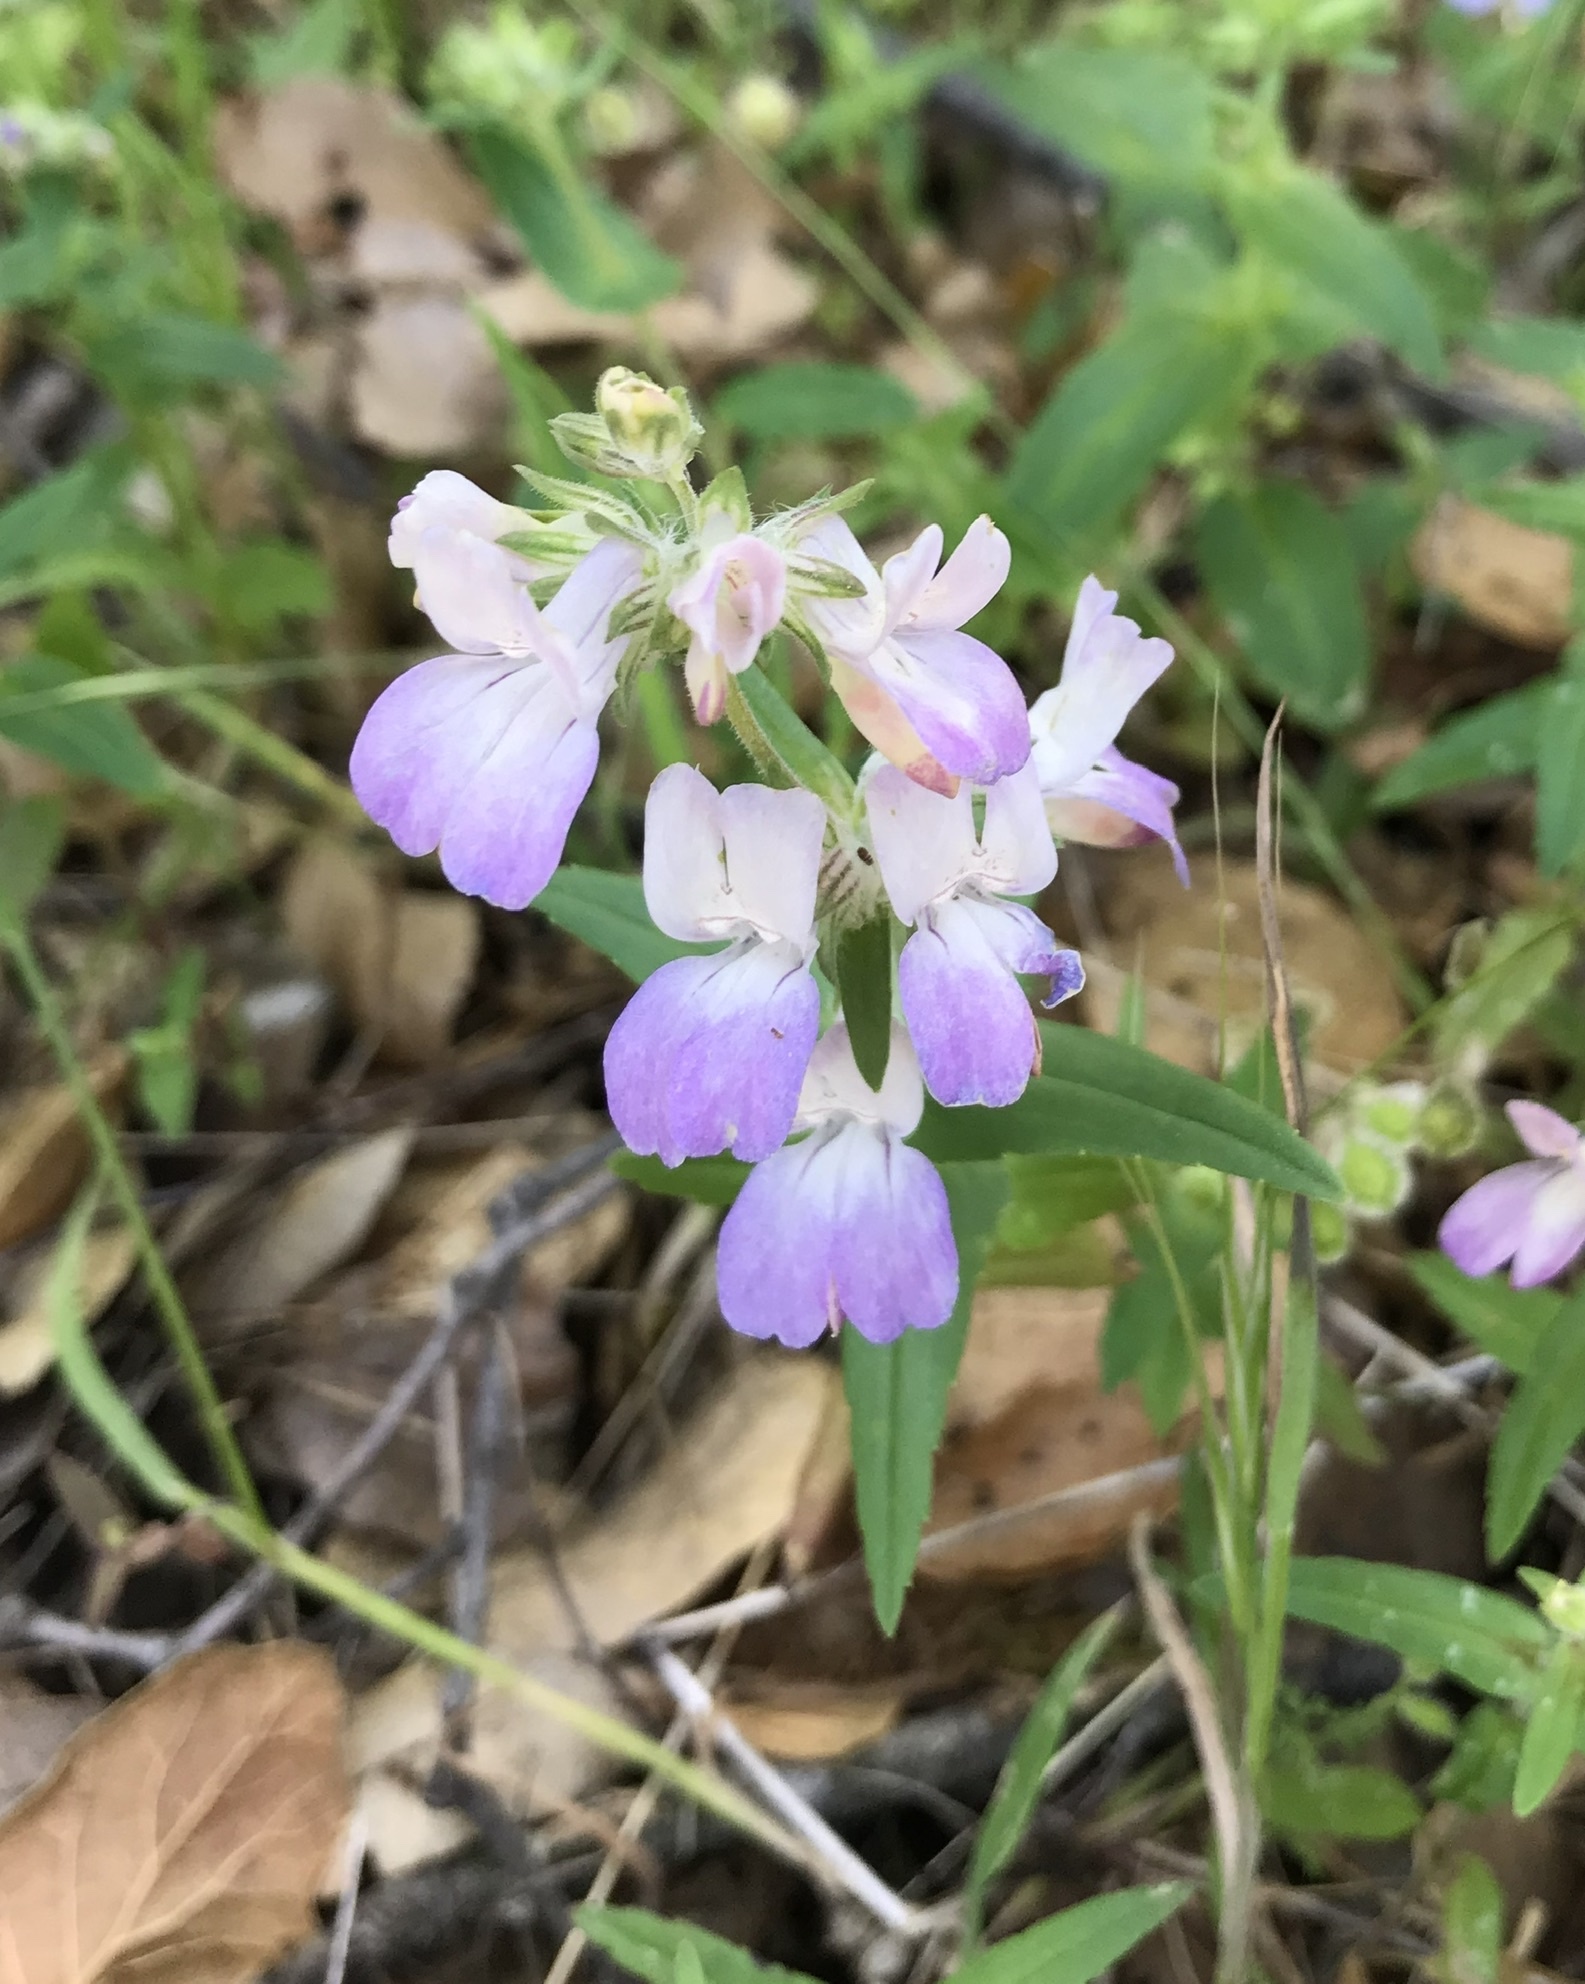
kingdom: Plantae
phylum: Tracheophyta
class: Magnoliopsida
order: Lamiales
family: Plantaginaceae
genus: Collinsia
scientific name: Collinsia heterophylla
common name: Chinese-houses
